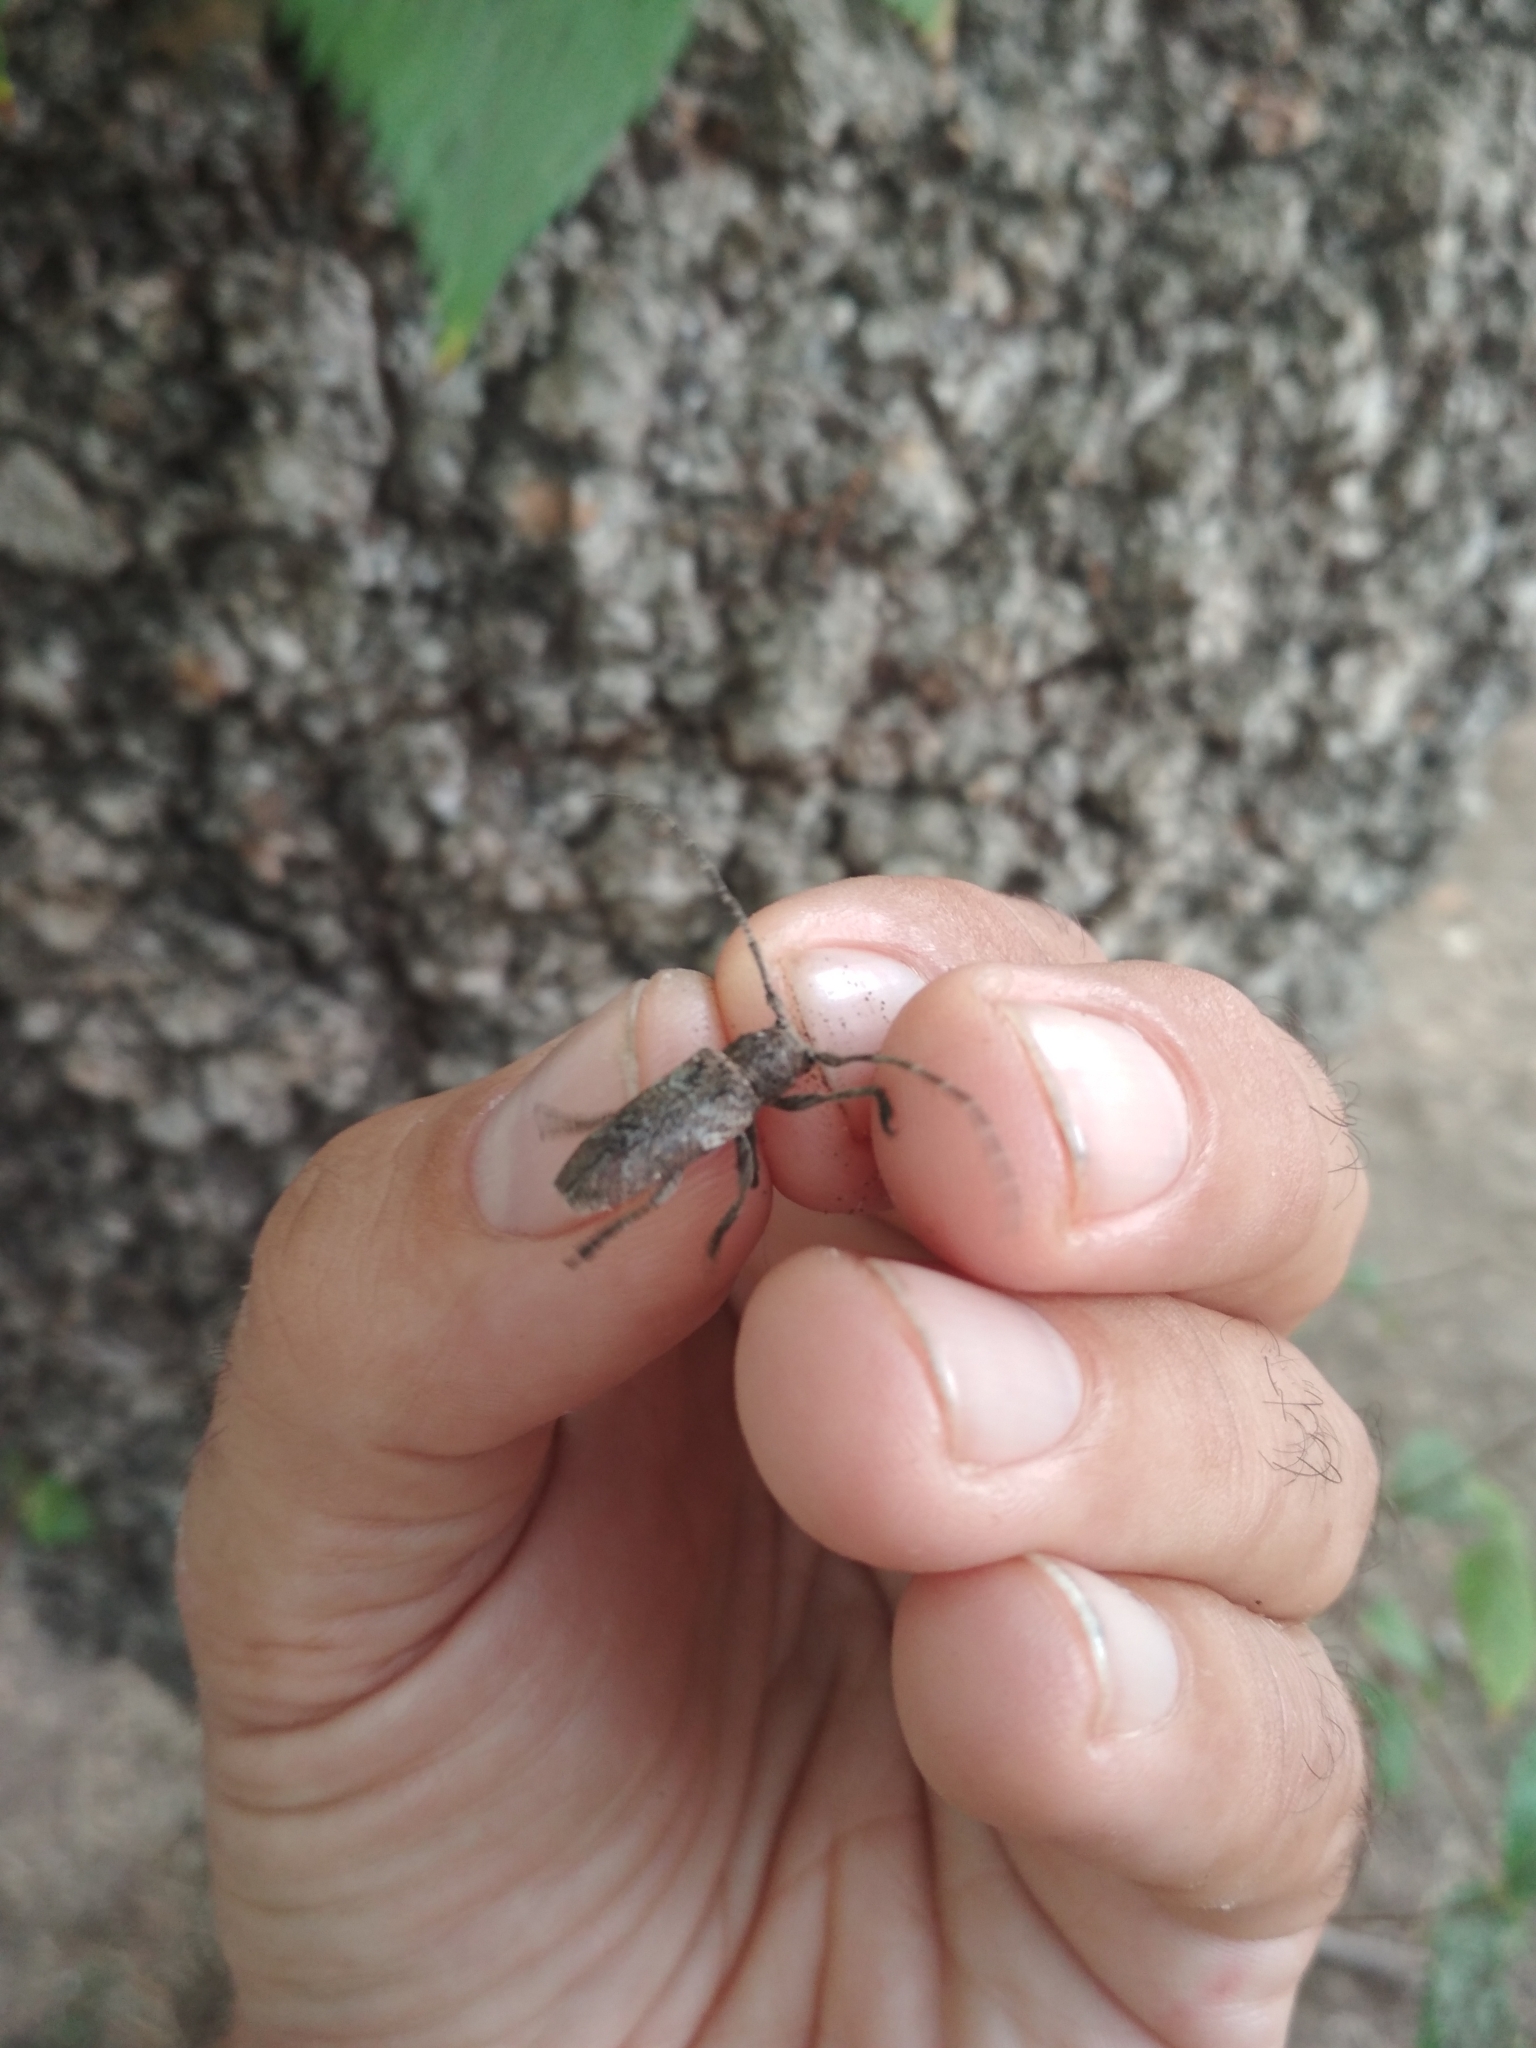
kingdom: Animalia
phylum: Arthropoda
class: Insecta
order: Coleoptera
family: Cerambycidae
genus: Niphona
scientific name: Niphona picticornis
